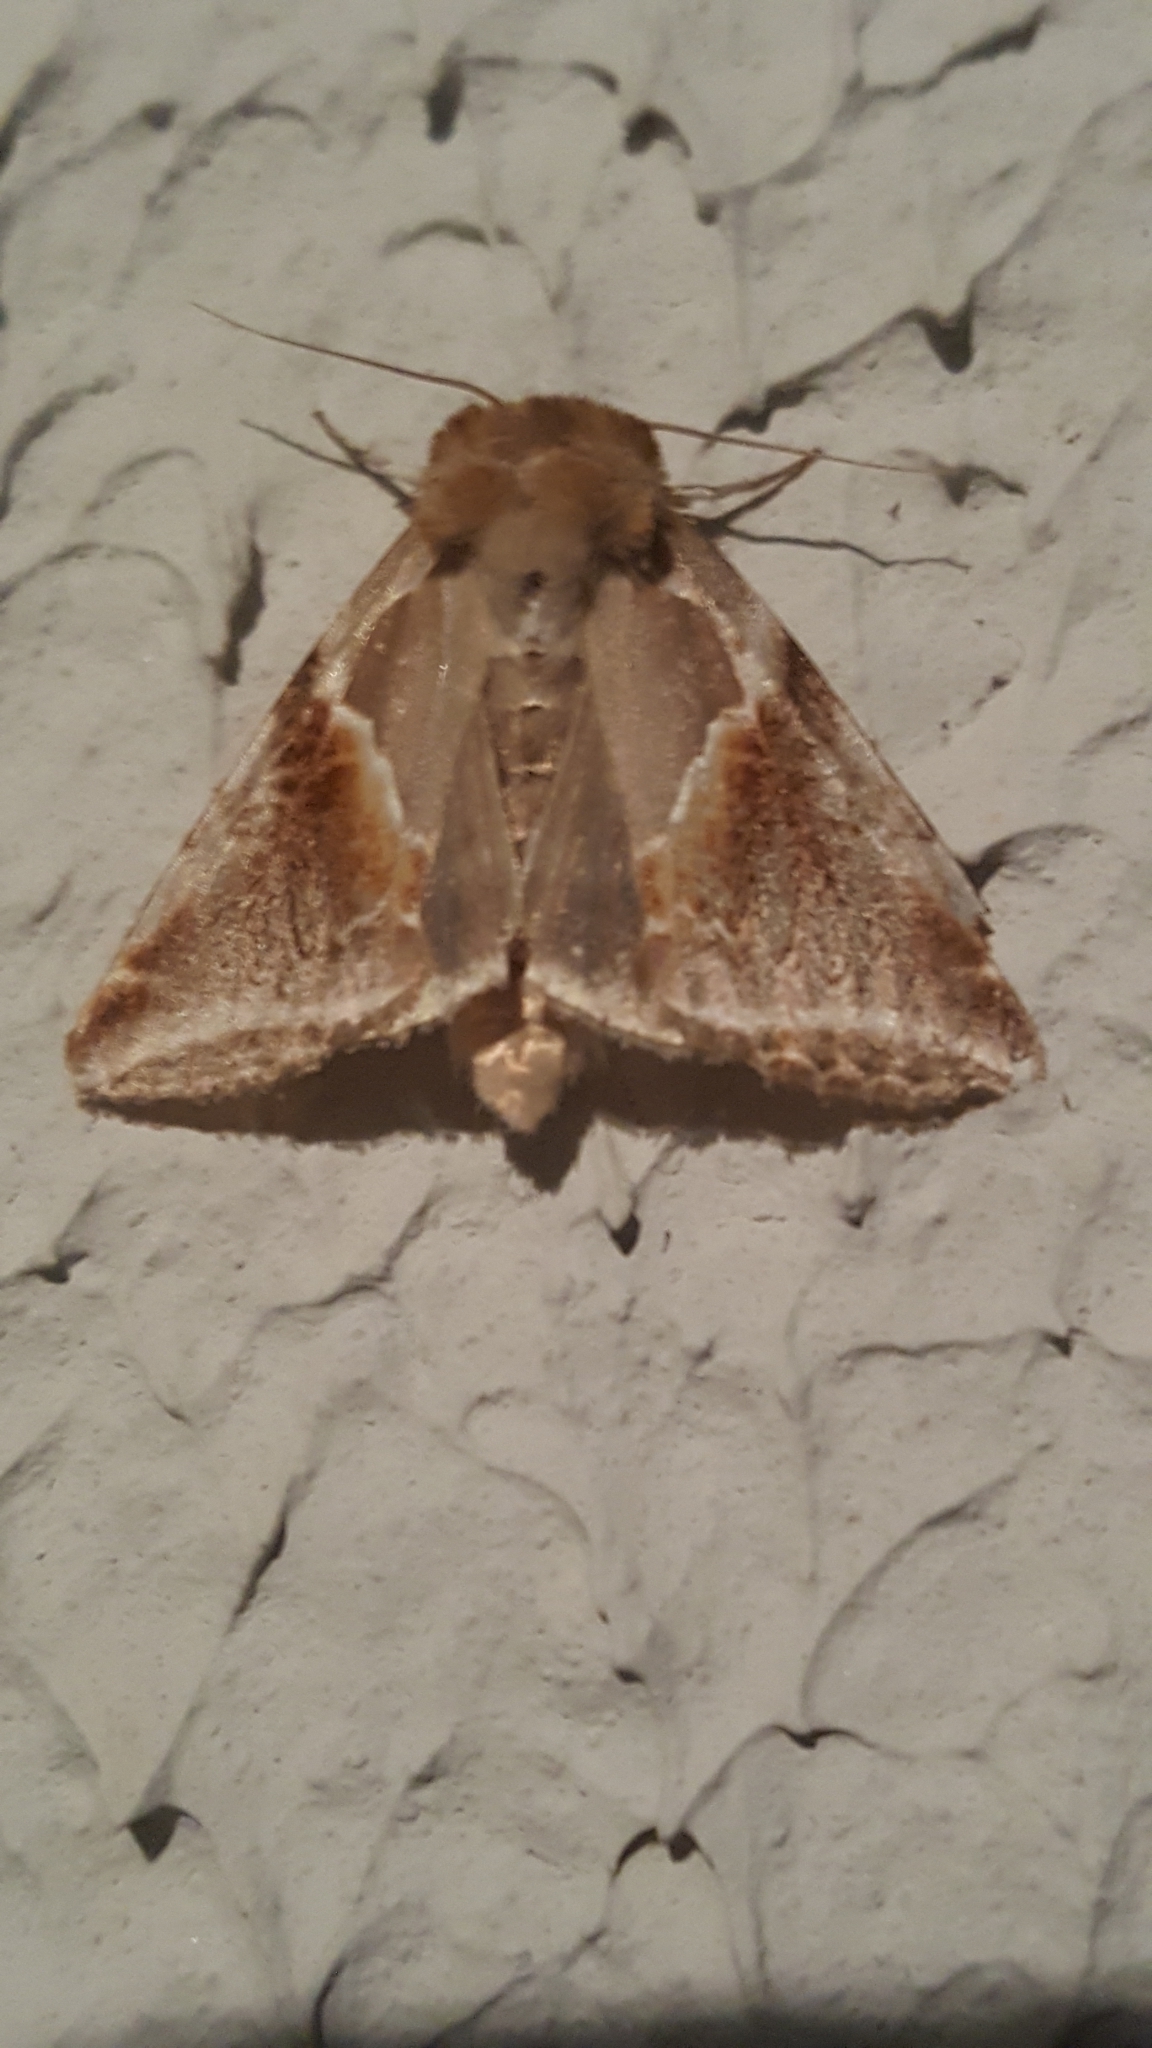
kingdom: Animalia
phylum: Arthropoda
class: Insecta
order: Lepidoptera
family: Drepanidae
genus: Habrosyne
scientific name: Habrosyne pyritoides
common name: Buff arches
